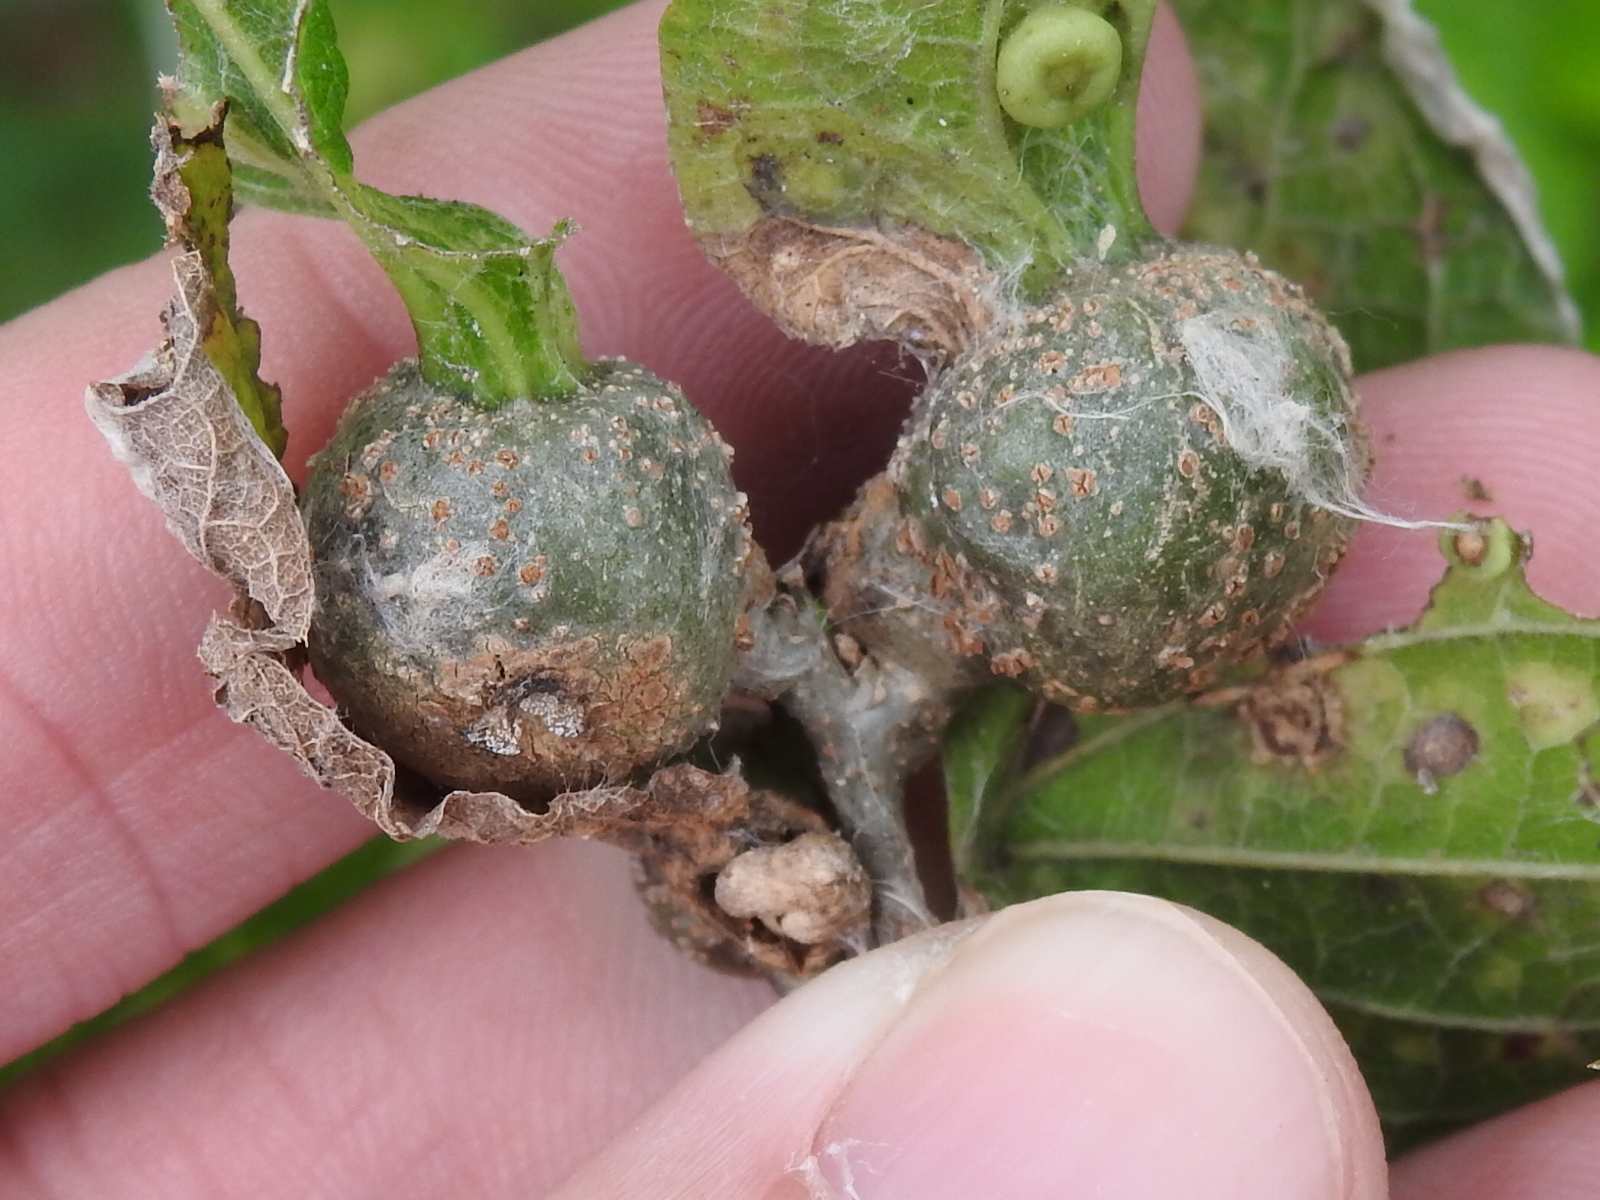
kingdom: Animalia
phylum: Arthropoda
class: Insecta
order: Hemiptera
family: Aphalaridae
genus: Pachypsylla
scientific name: Pachypsylla venusta
